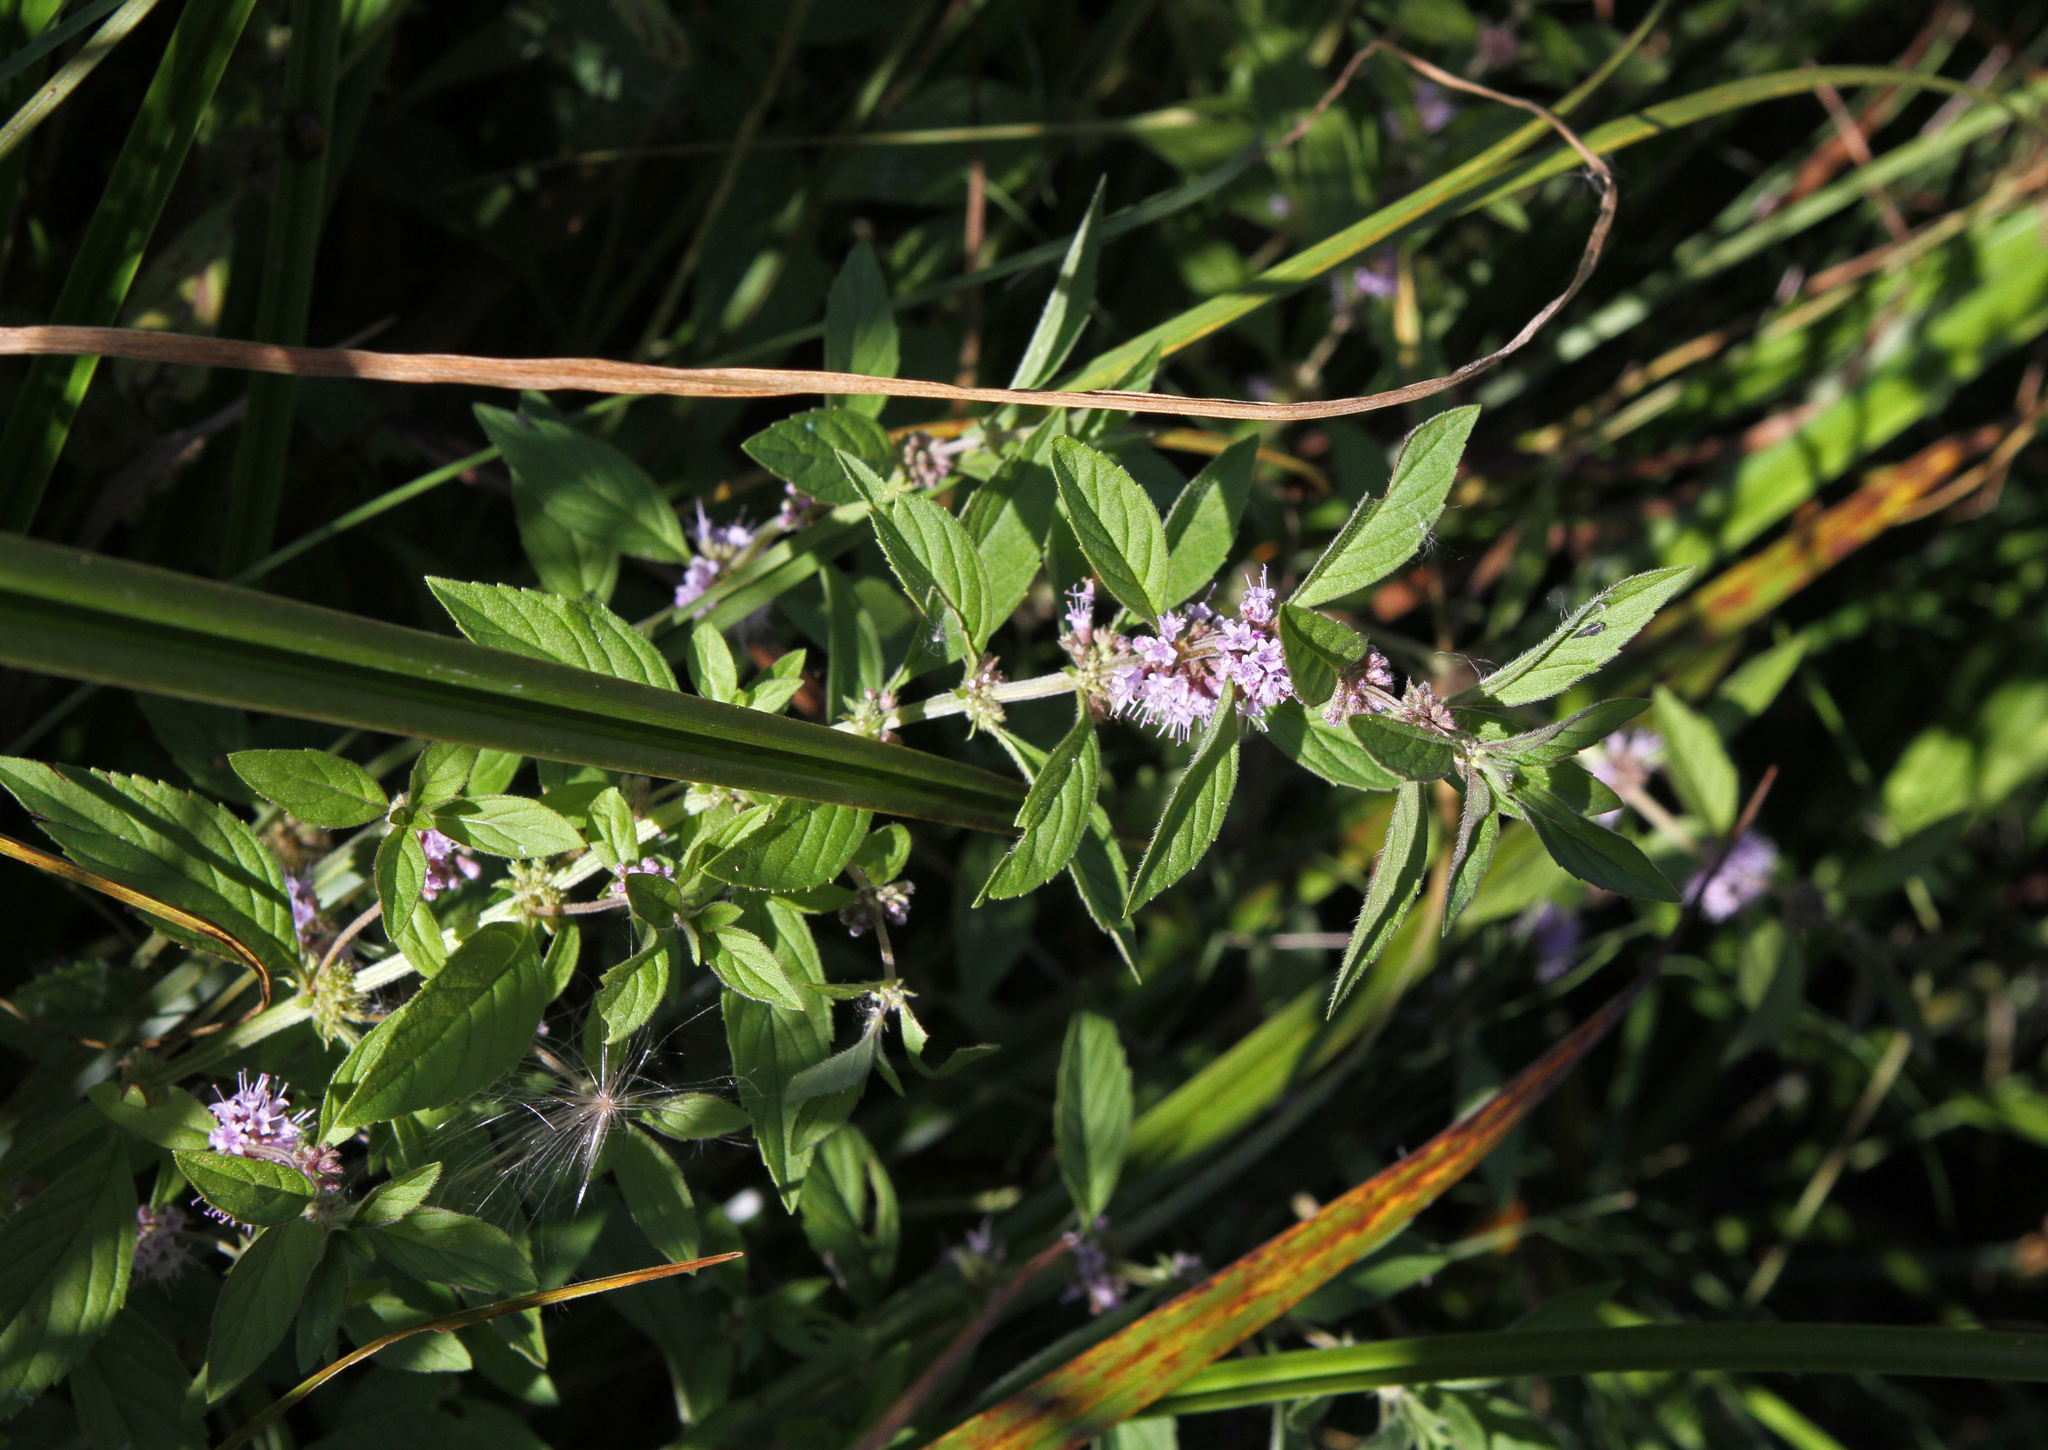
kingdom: Plantae
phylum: Tracheophyta
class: Magnoliopsida
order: Lamiales
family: Lamiaceae
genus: Mentha
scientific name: Mentha arvensis
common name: Corn mint
